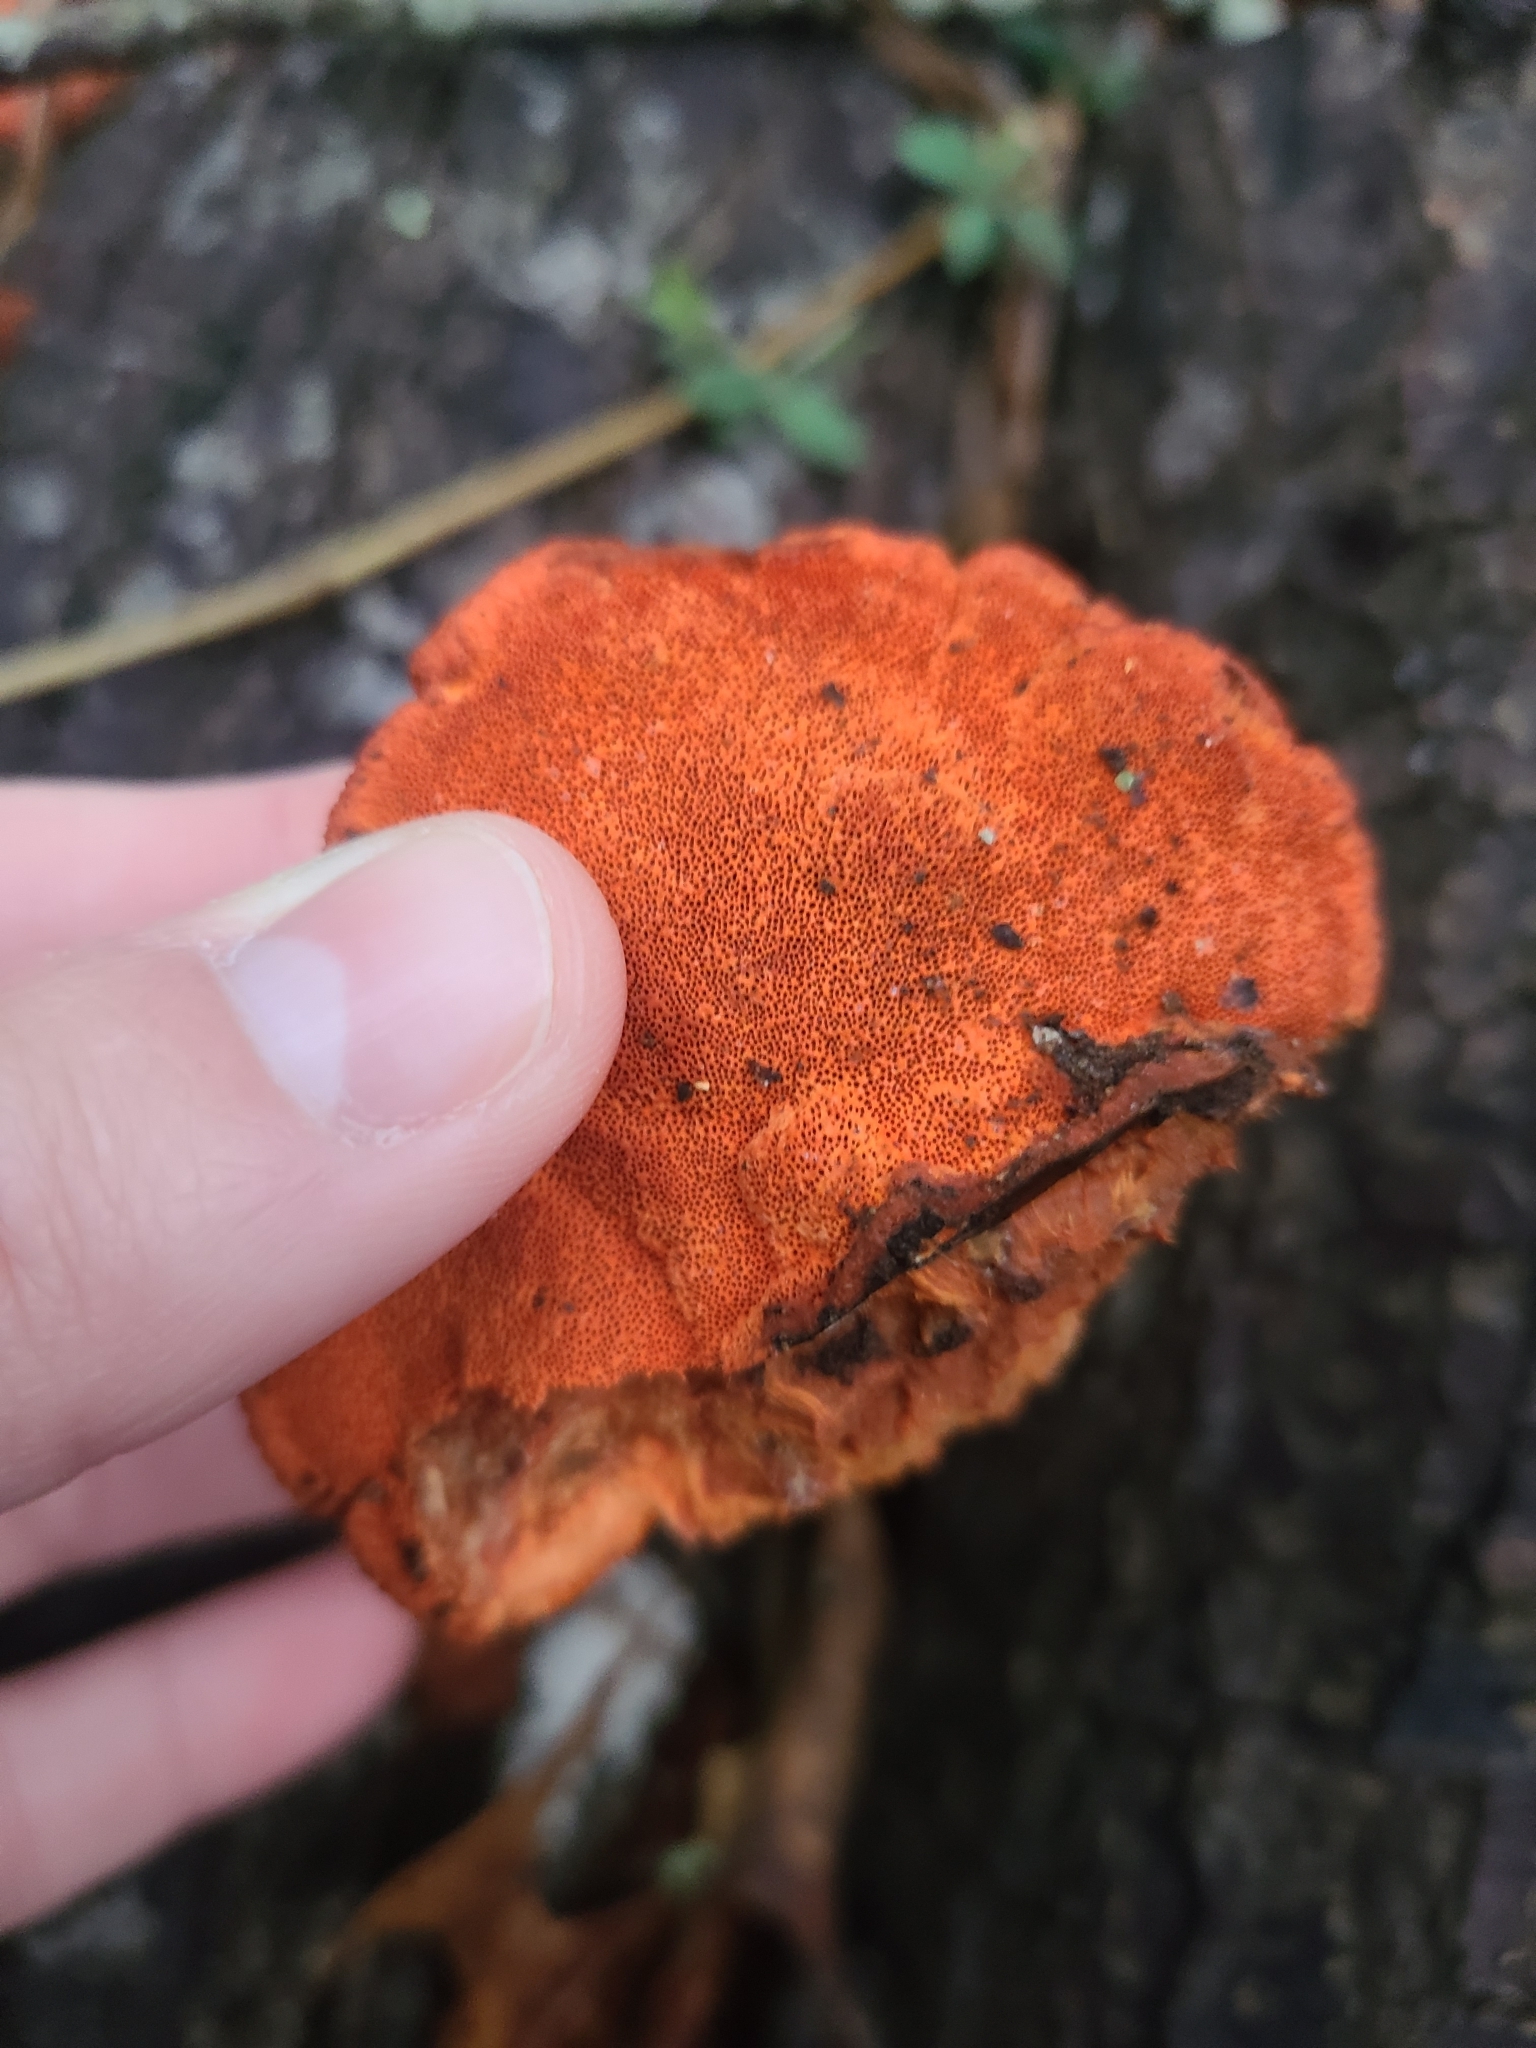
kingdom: Fungi
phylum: Basidiomycota
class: Agaricomycetes
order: Polyporales
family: Polyporaceae
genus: Trametes
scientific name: Trametes cinnabarina
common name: Northern cinnabar polypore
